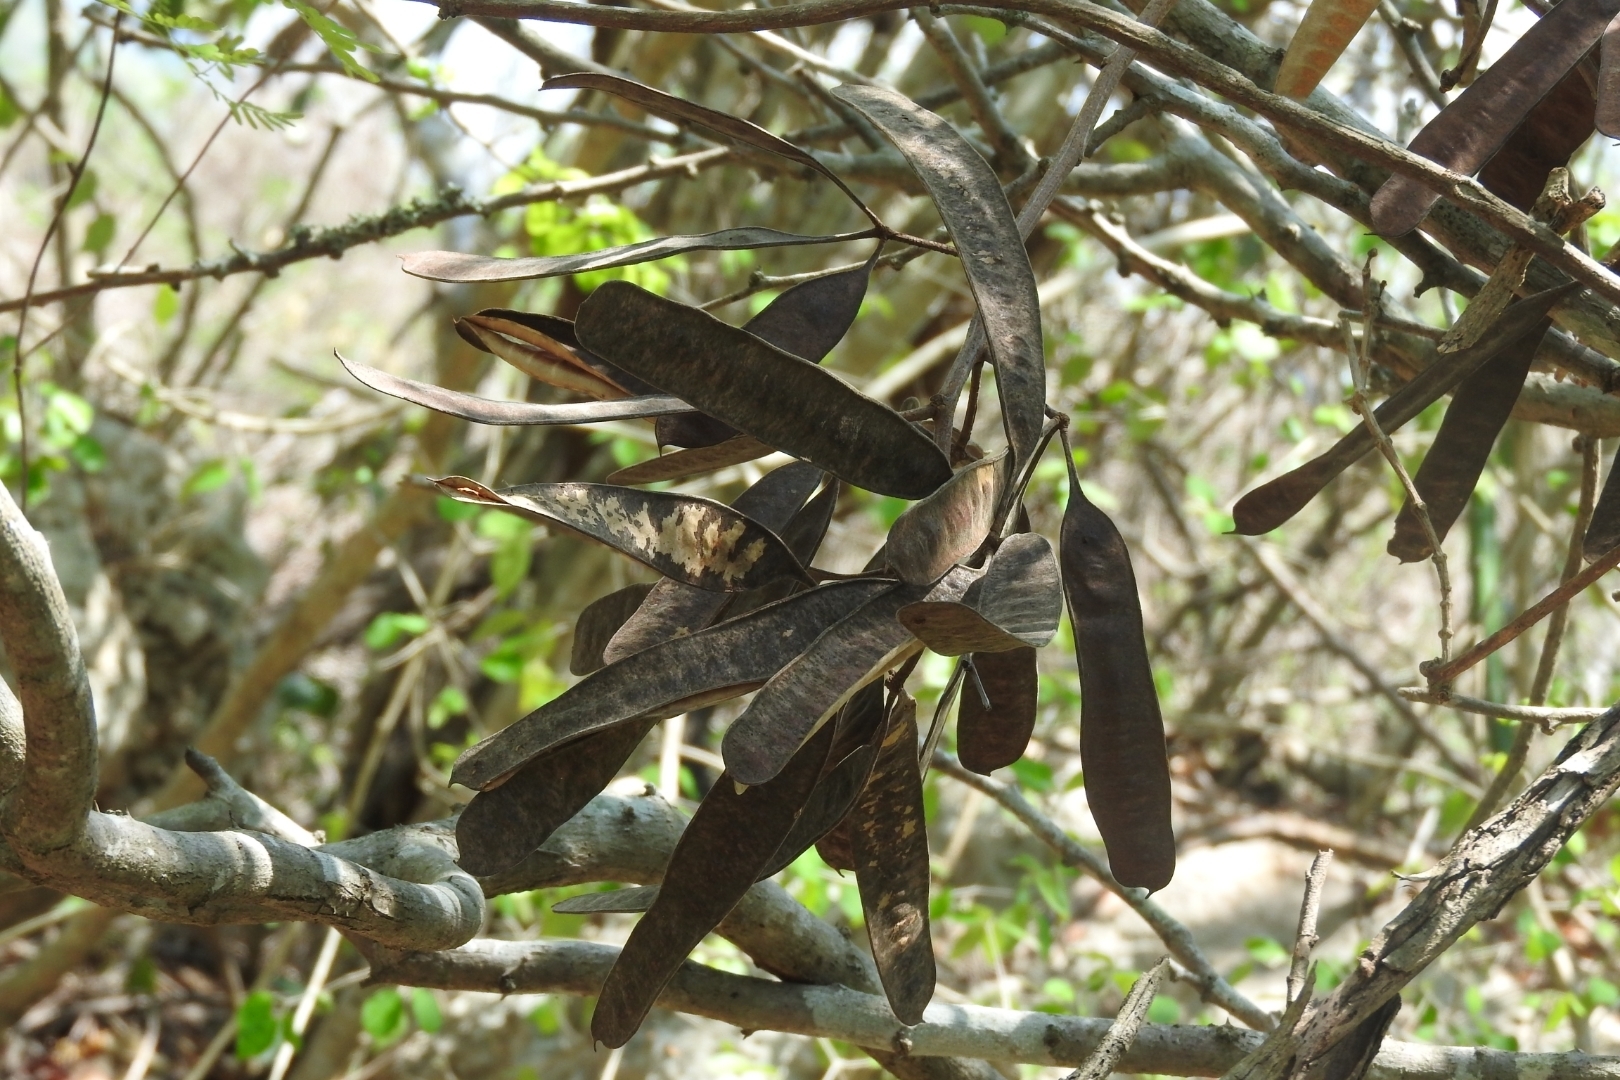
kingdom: Plantae
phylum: Tracheophyta
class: Magnoliopsida
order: Fabales
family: Fabaceae
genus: Leucaena
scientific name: Leucaena leucocephala
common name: White leadtree
